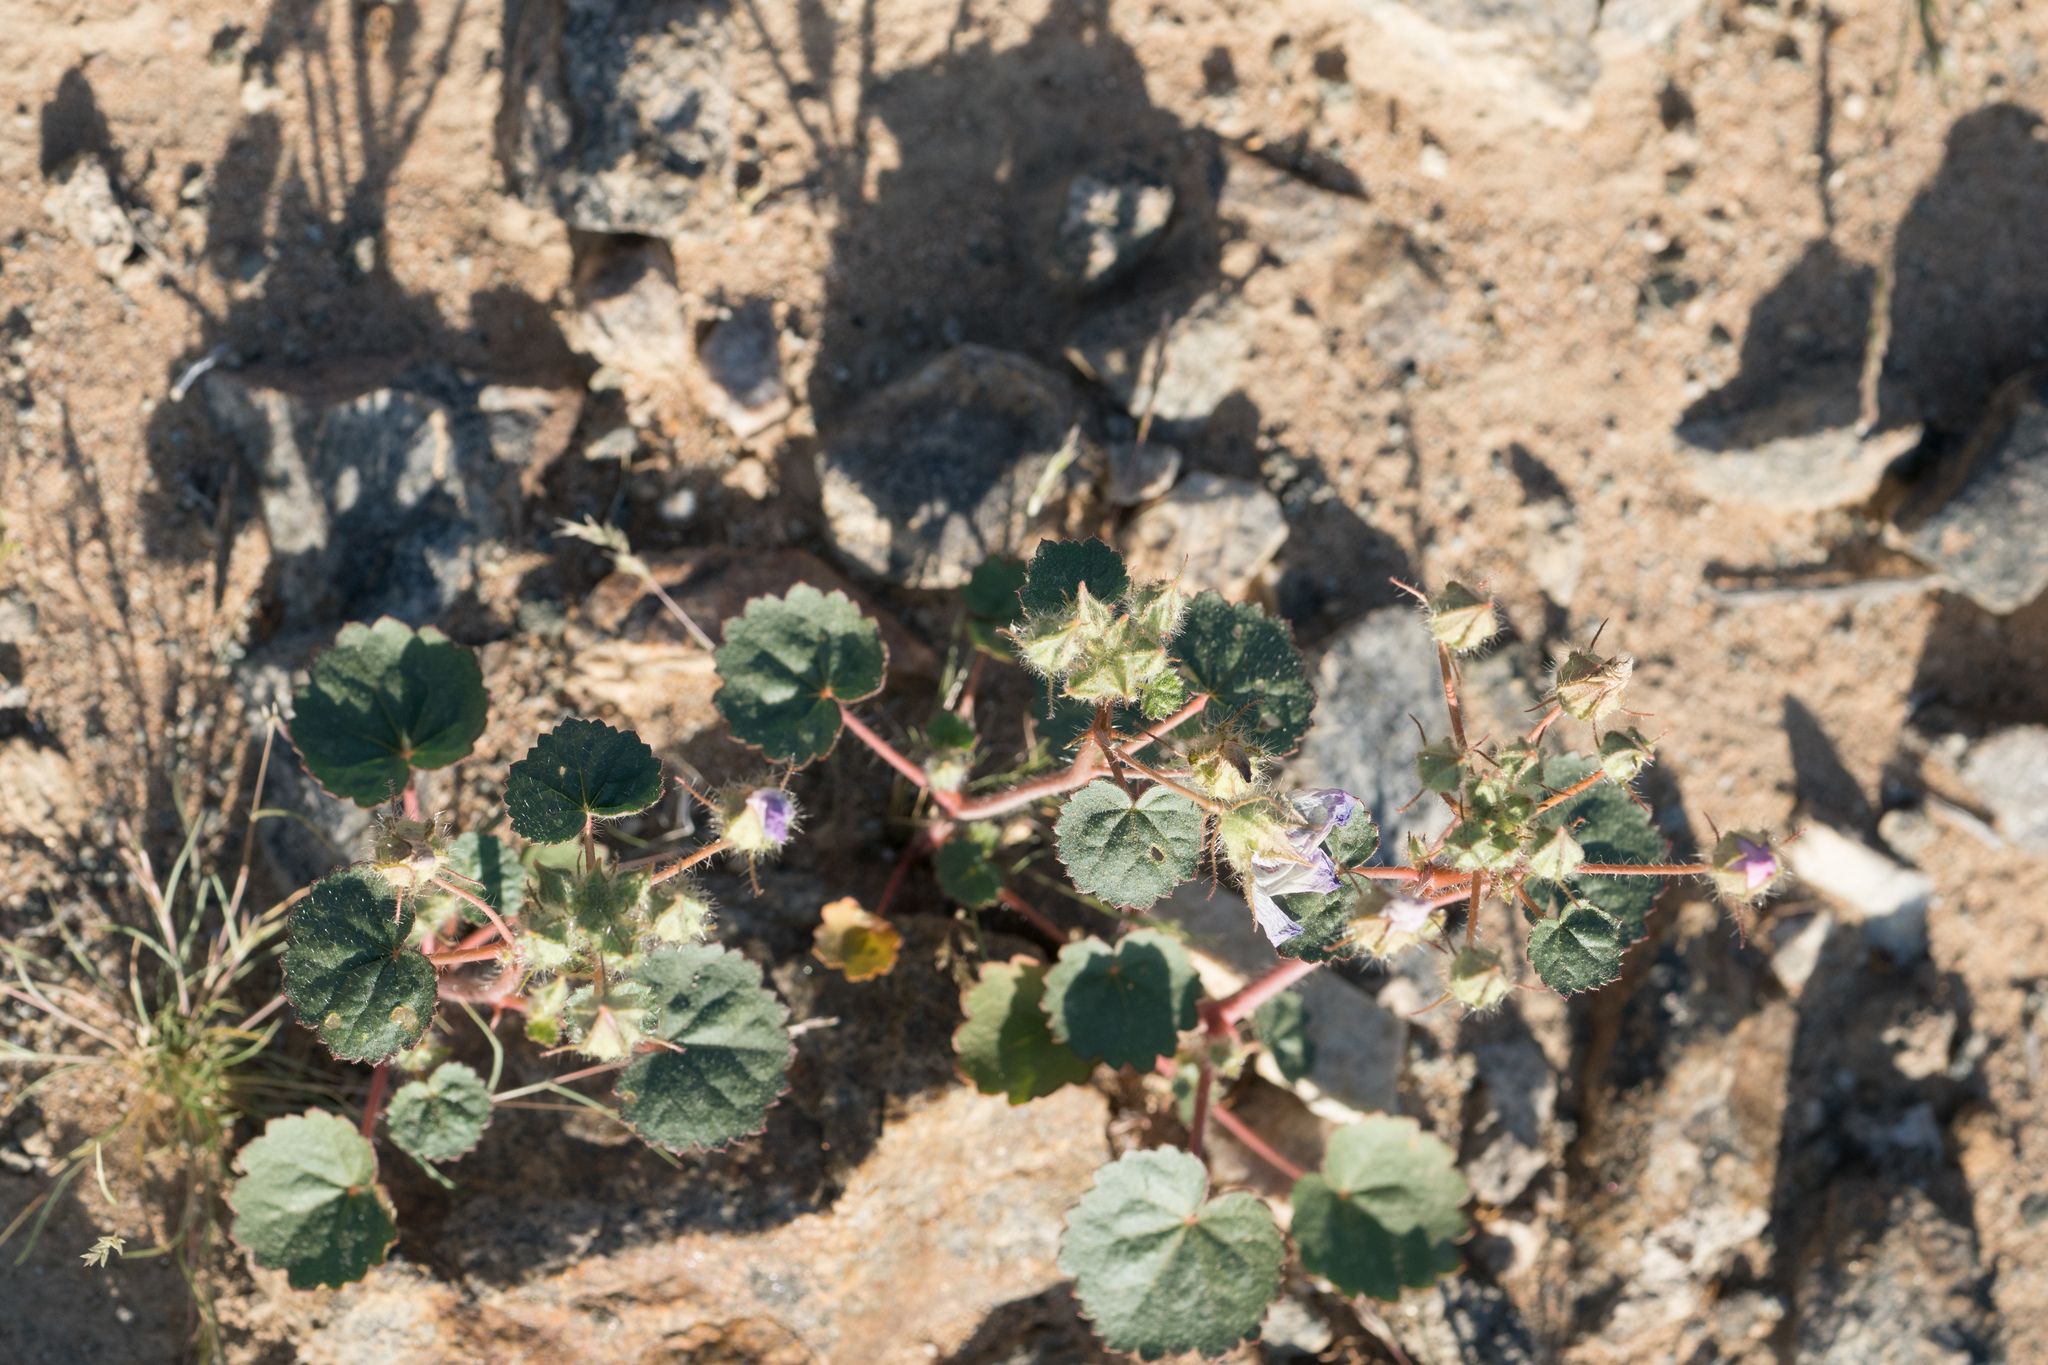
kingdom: Plantae
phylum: Tracheophyta
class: Magnoliopsida
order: Malvales
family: Malvaceae
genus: Eremalche
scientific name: Eremalche rotundifolia
